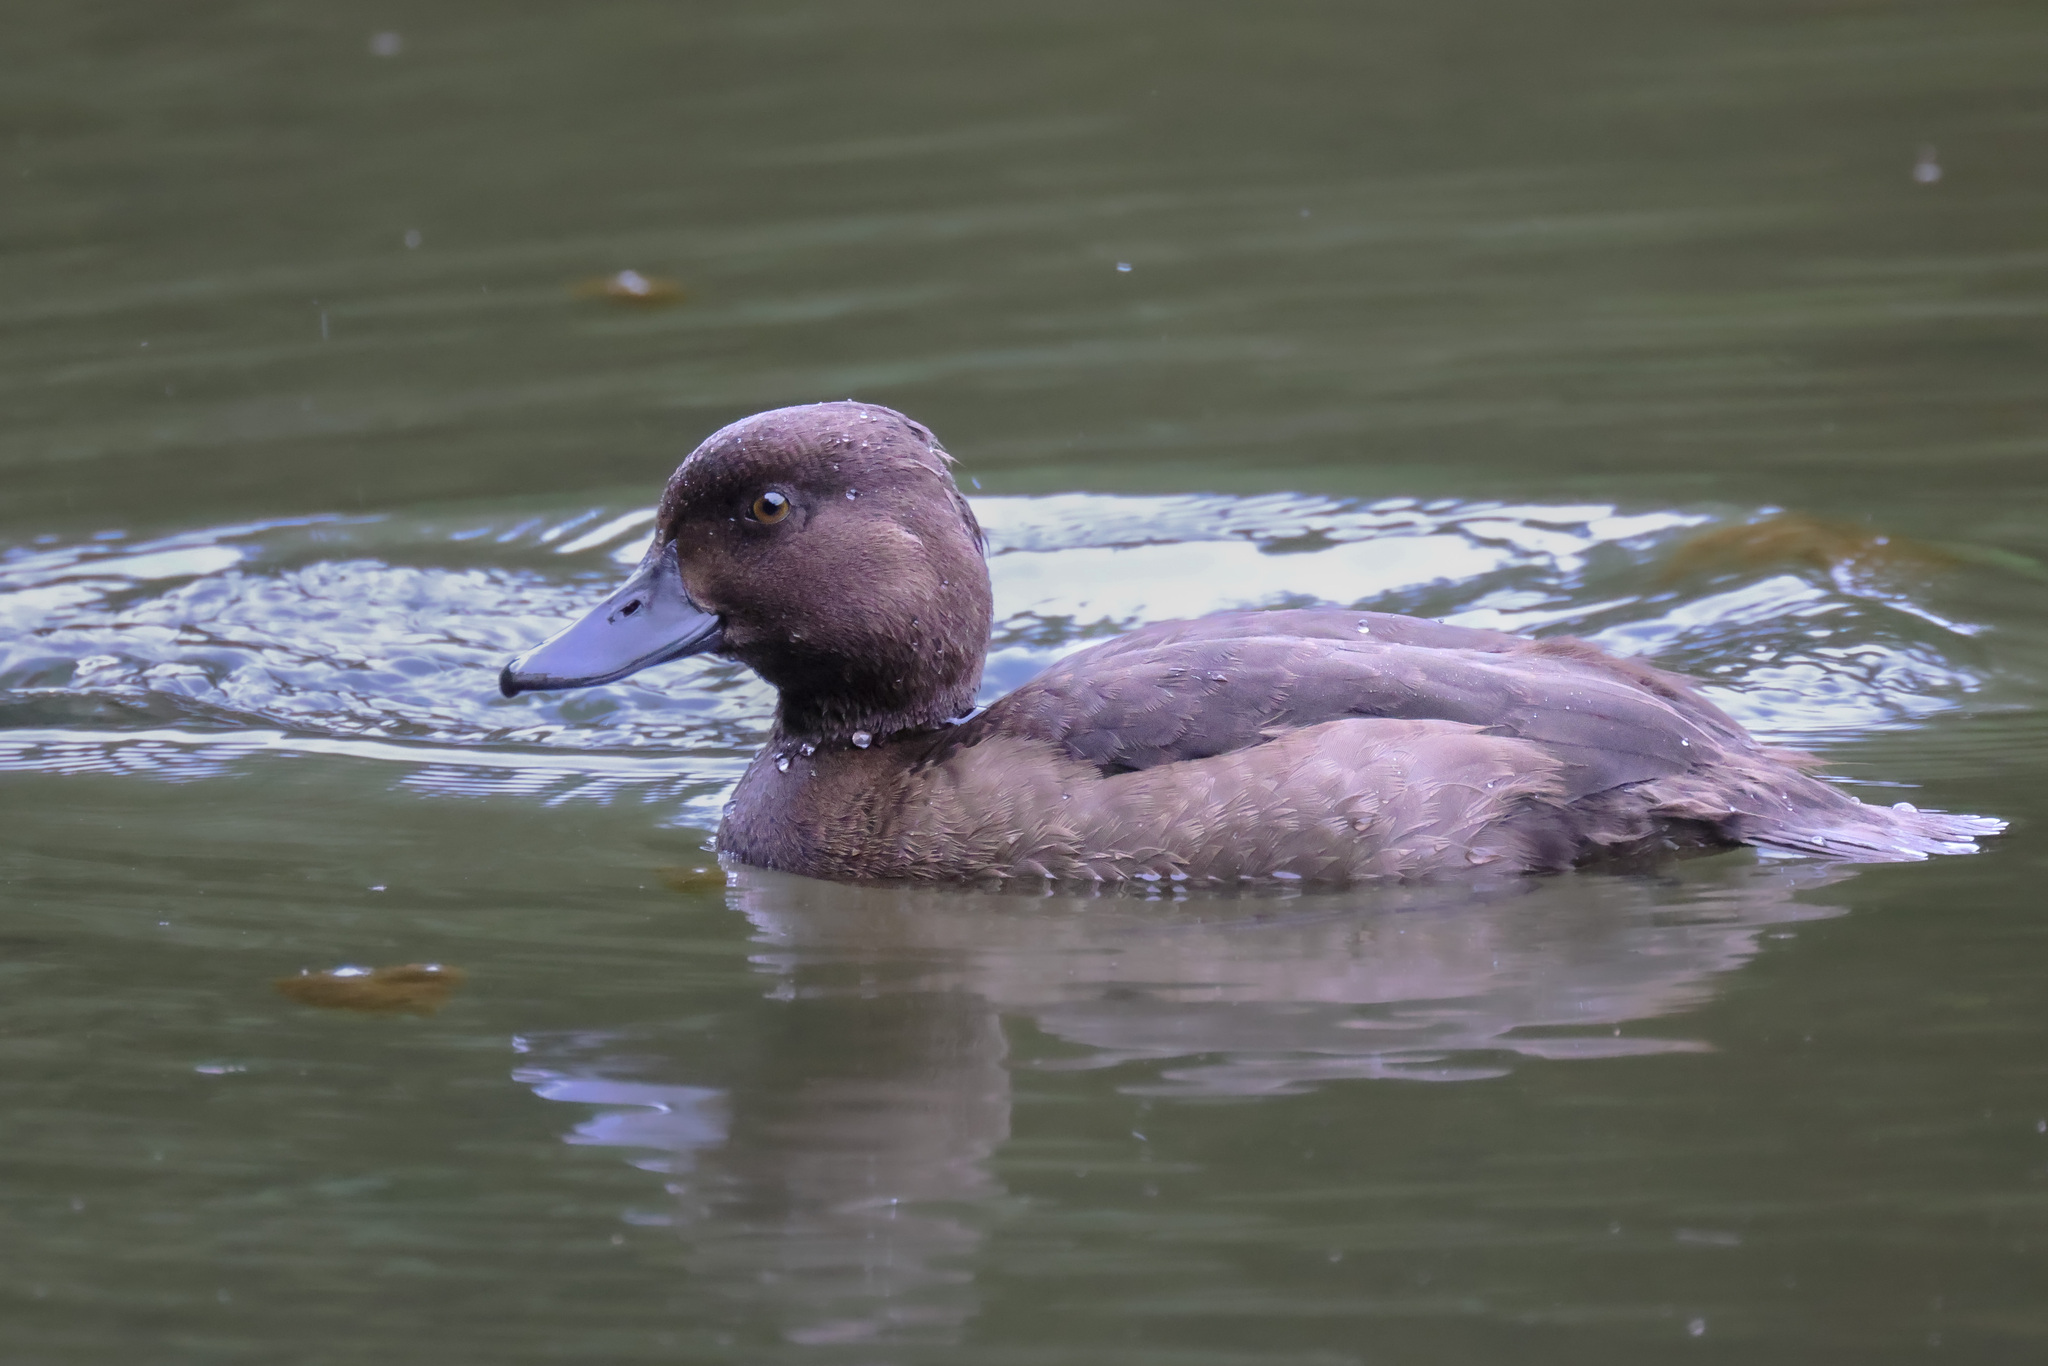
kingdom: Animalia
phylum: Chordata
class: Aves
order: Anseriformes
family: Anatidae
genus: Aythya
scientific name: Aythya fuligula
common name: Tufted duck
